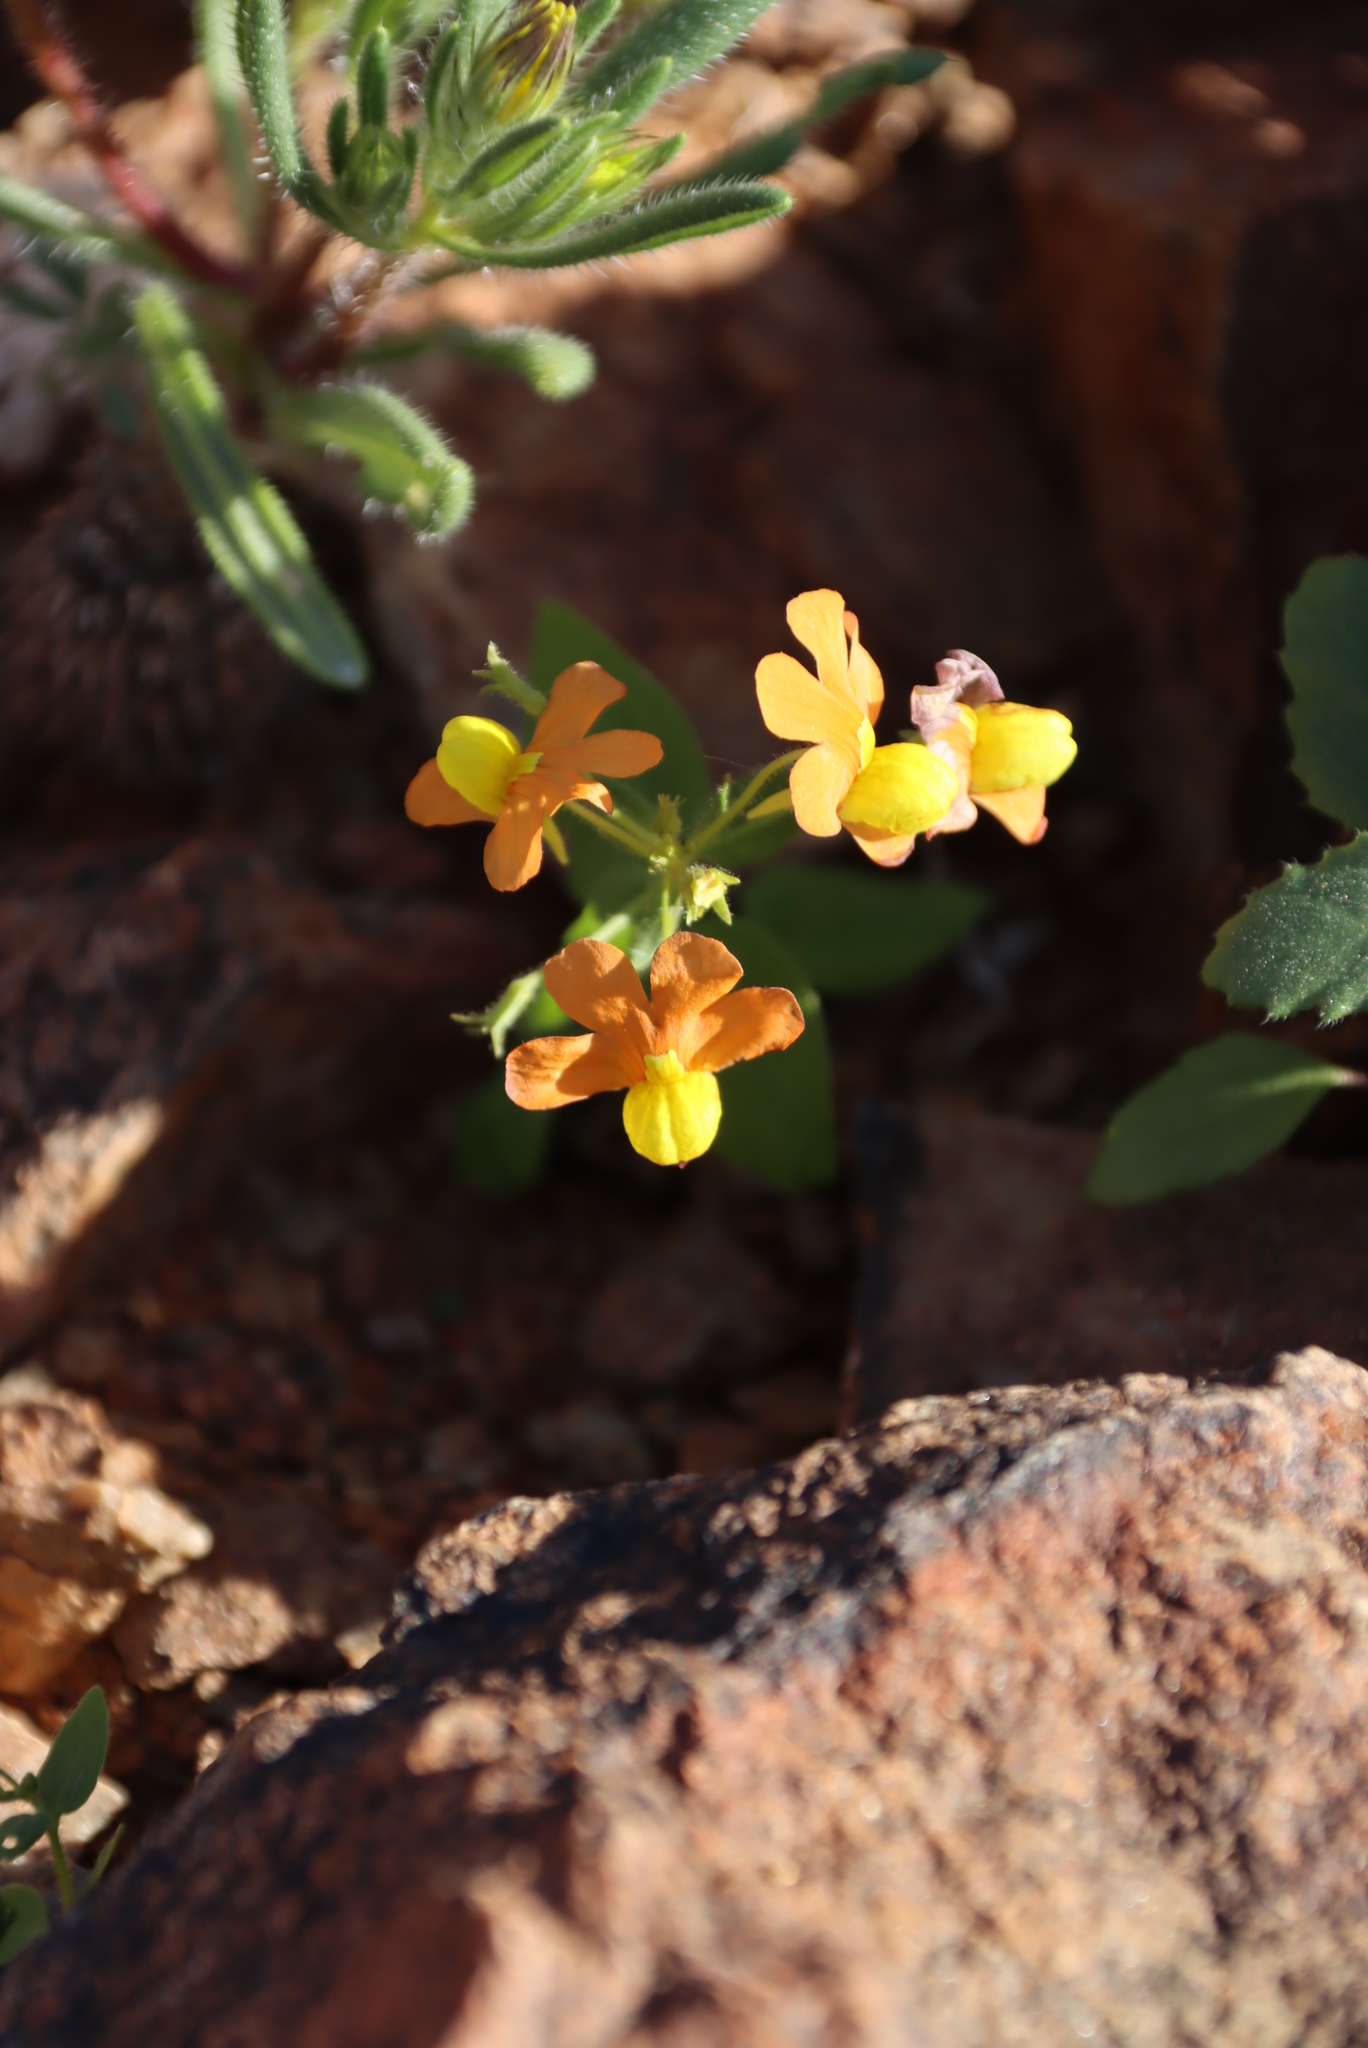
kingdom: Plantae
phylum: Tracheophyta
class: Magnoliopsida
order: Lamiales
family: Scrophulariaceae
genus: Nemesia
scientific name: Nemesia williamsonii
